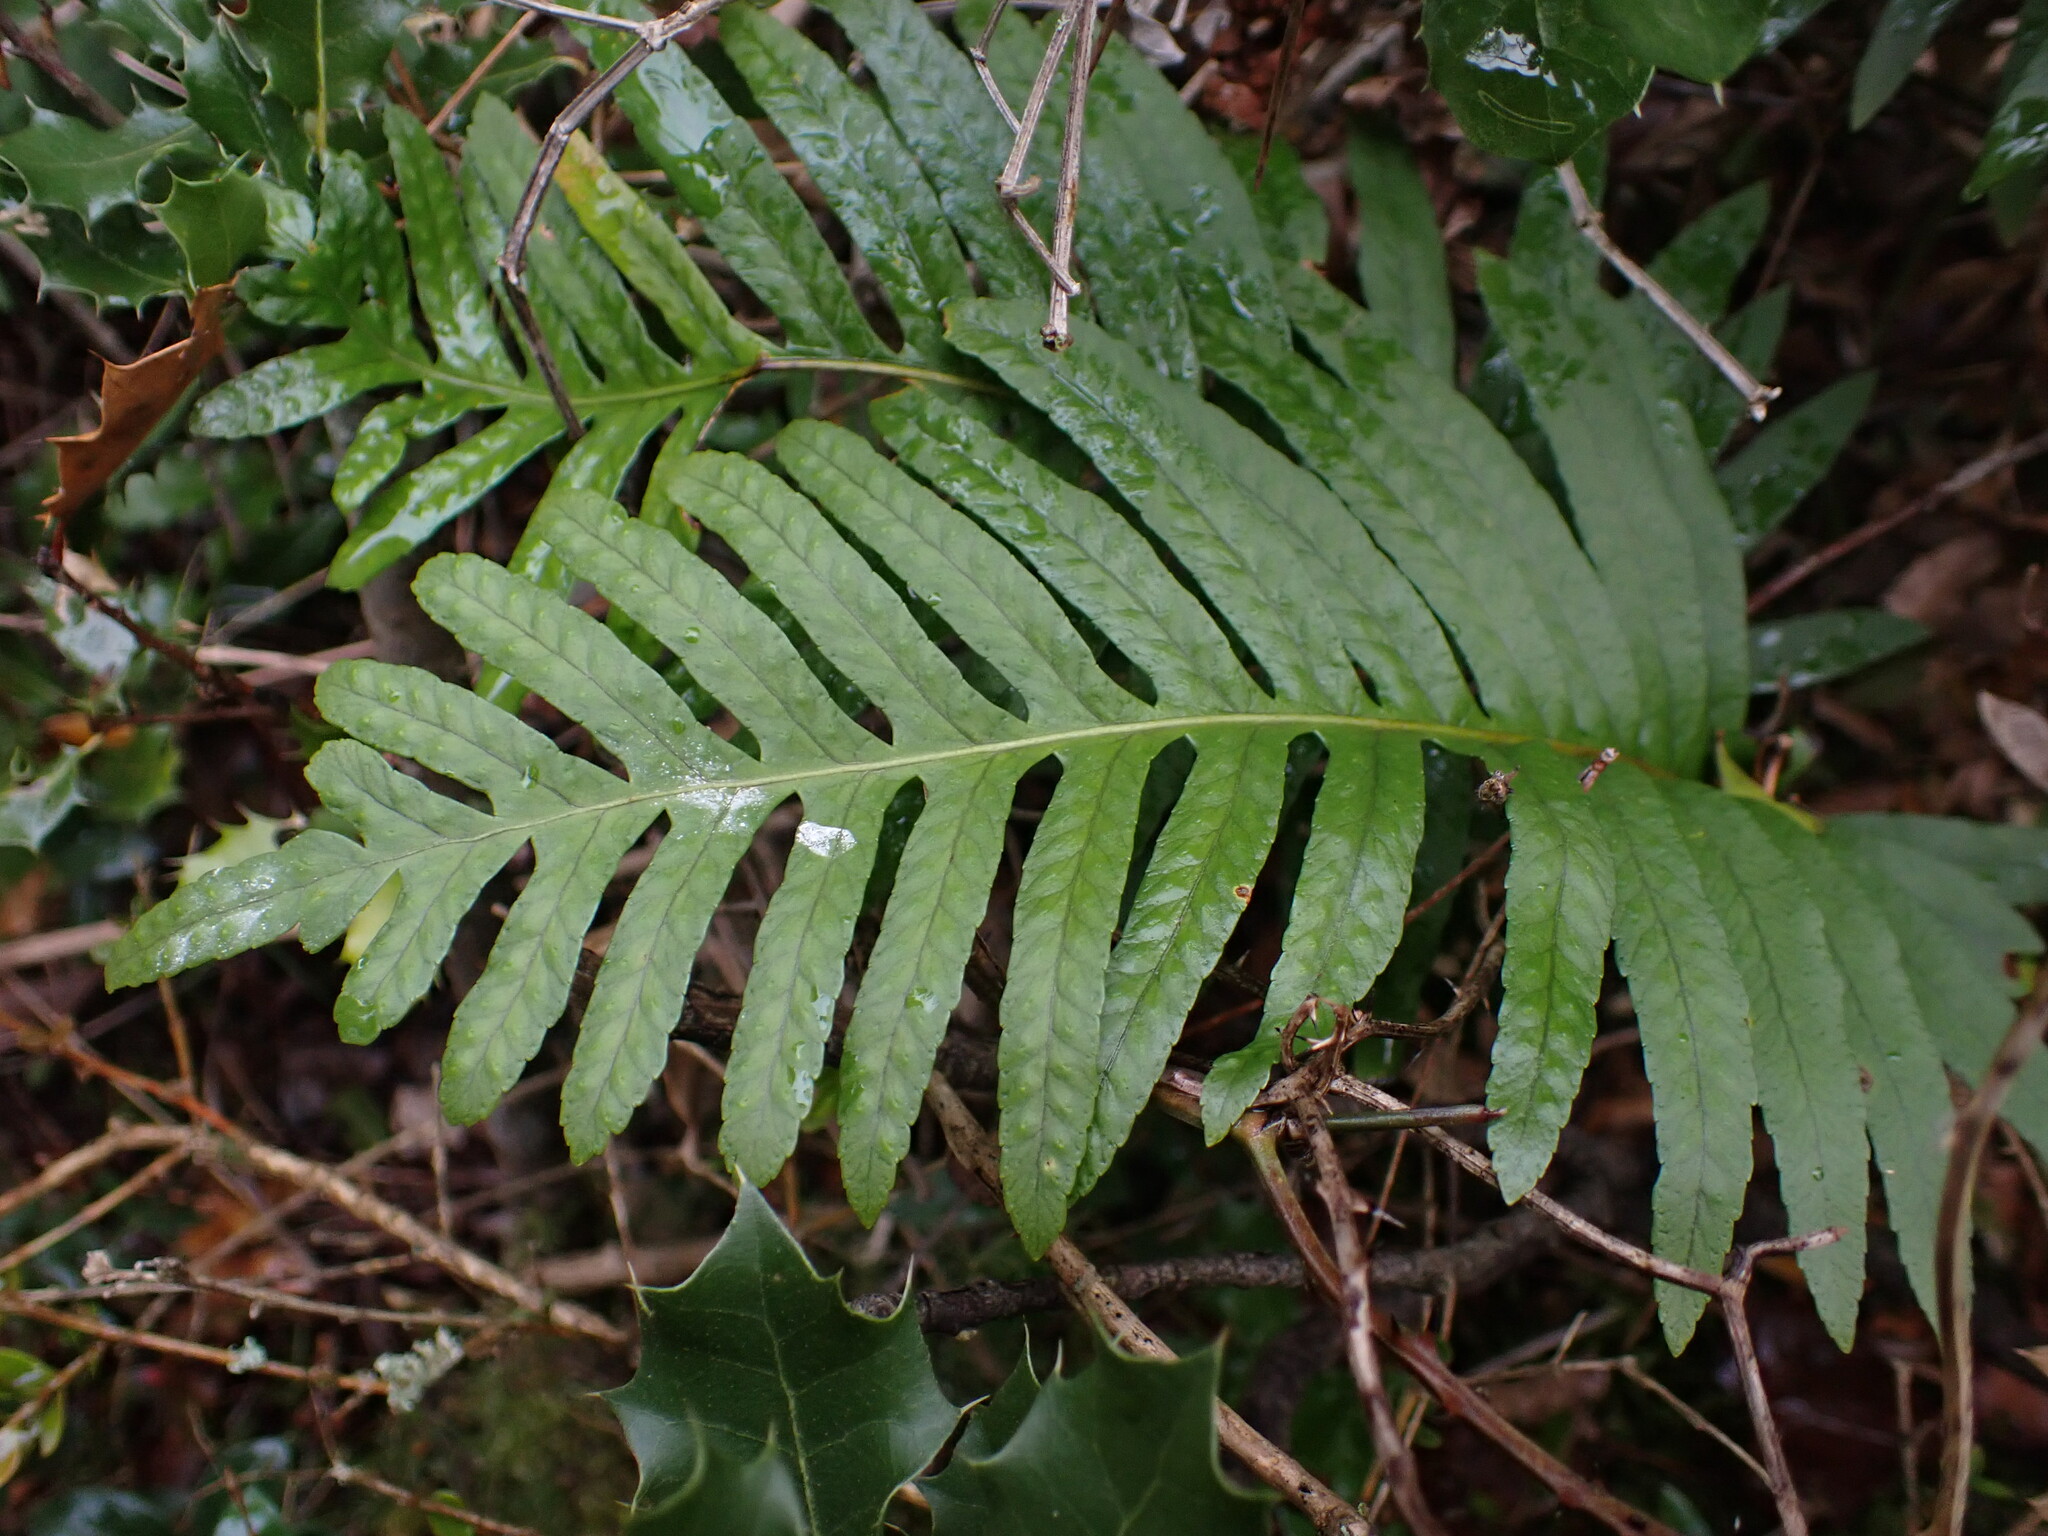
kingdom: Plantae
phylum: Tracheophyta
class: Polypodiopsida
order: Polypodiales
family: Polypodiaceae
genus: Polypodium
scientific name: Polypodium cambricum
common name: Southern polypody
